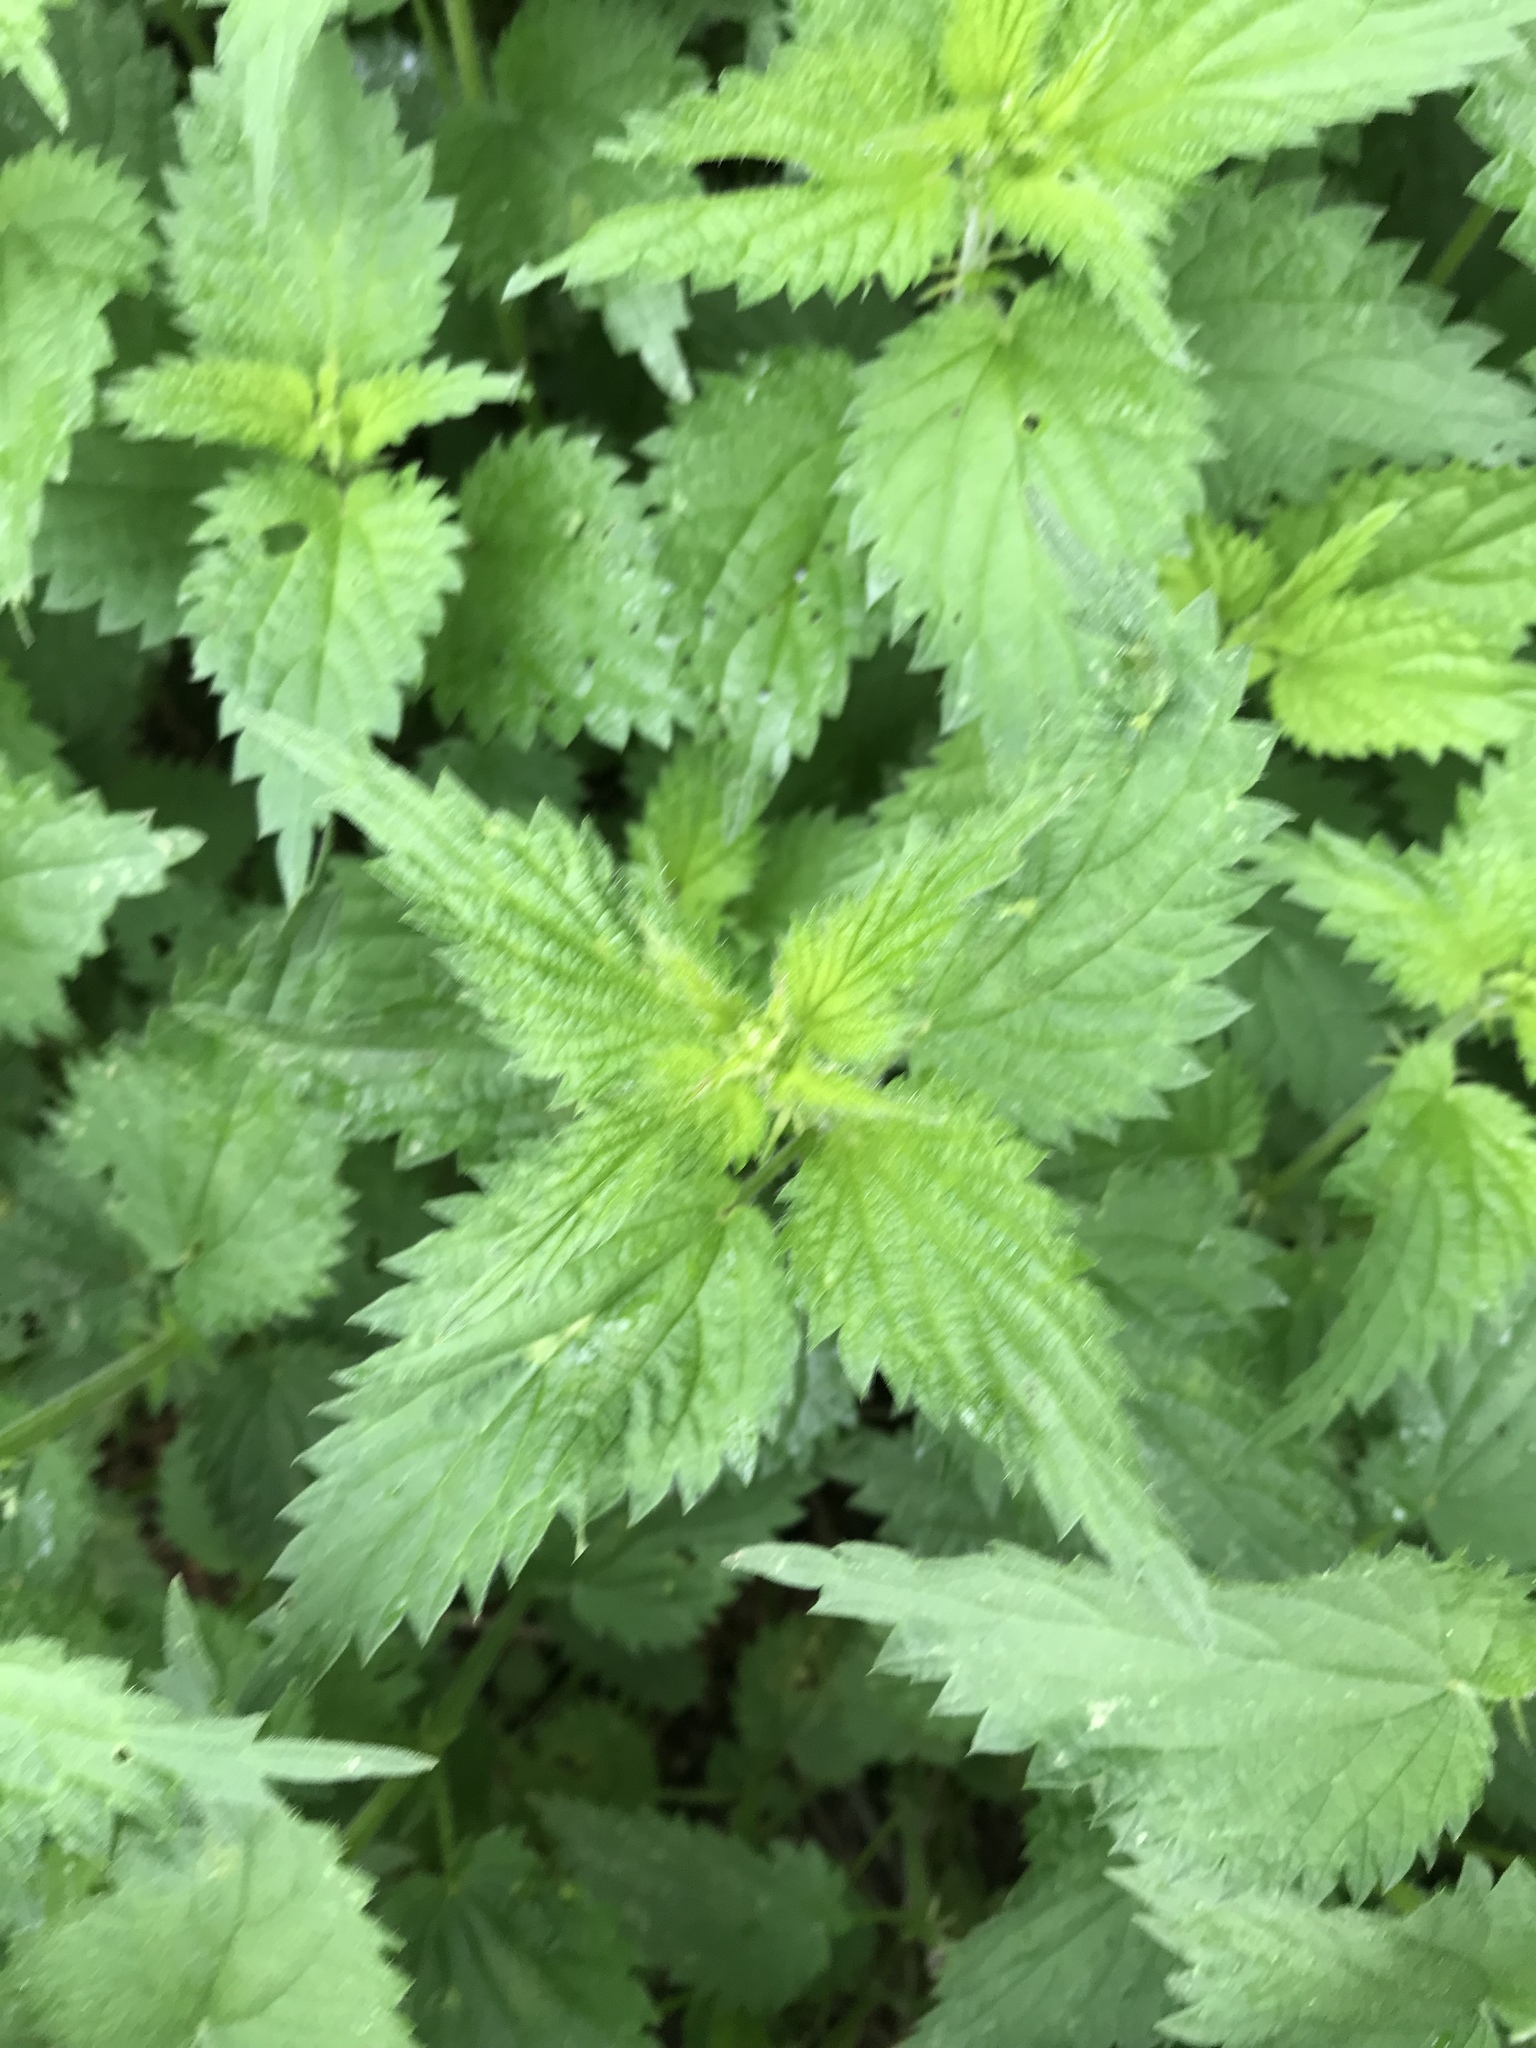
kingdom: Plantae
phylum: Tracheophyta
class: Magnoliopsida
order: Rosales
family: Urticaceae
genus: Urtica
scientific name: Urtica dioica
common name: Common nettle
